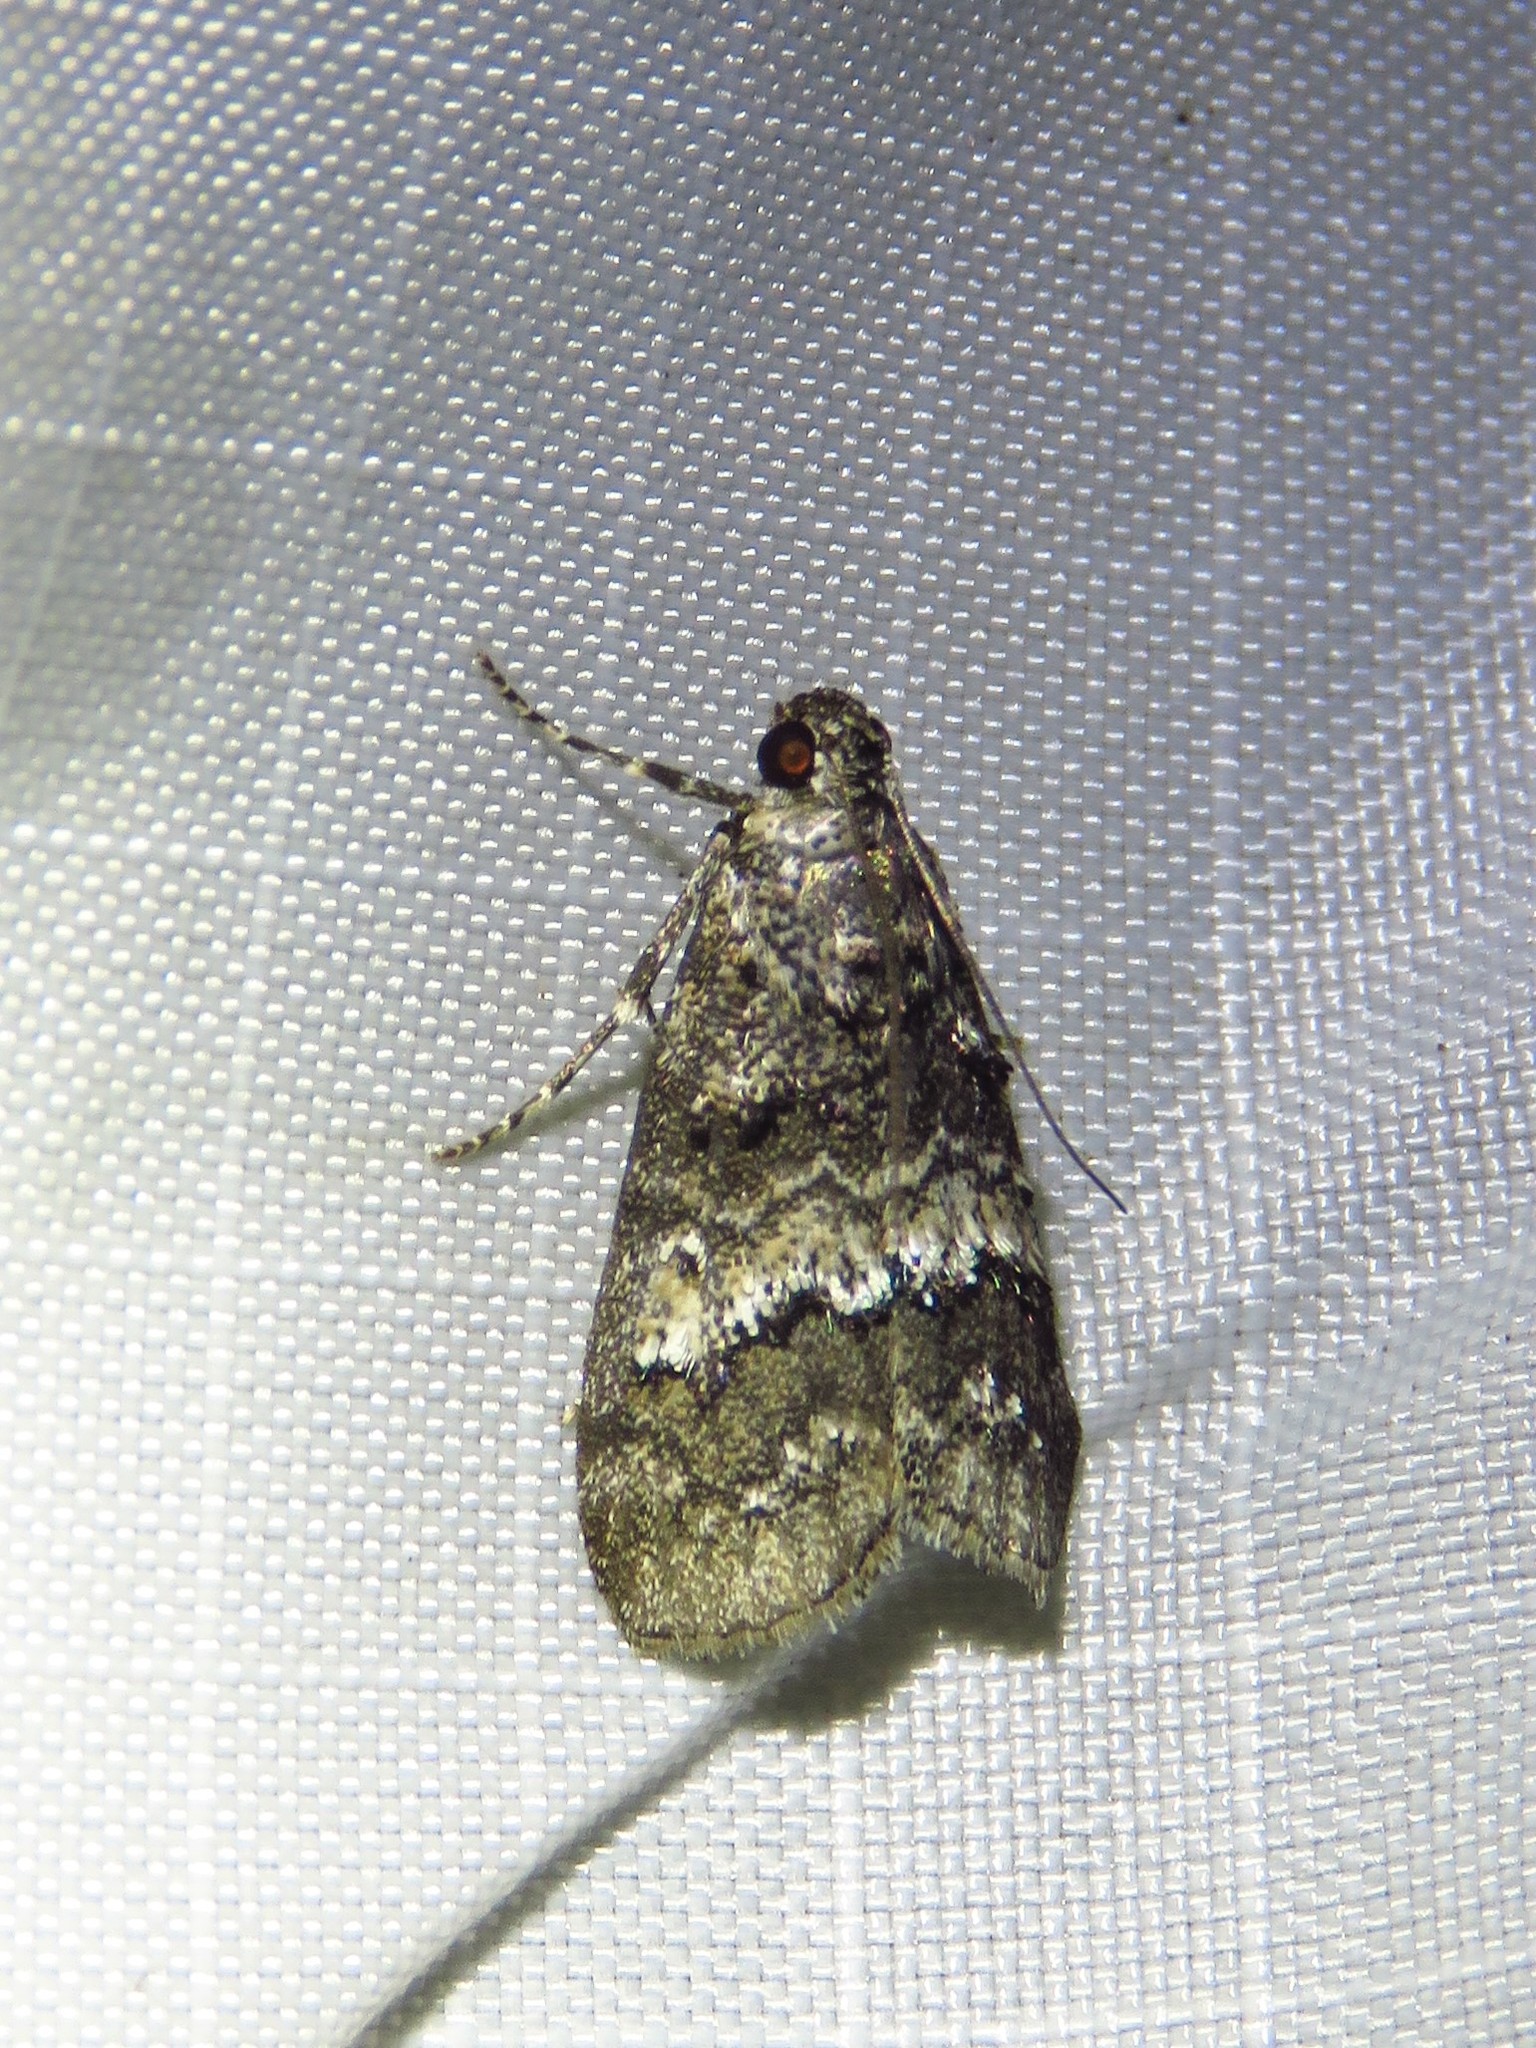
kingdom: Animalia
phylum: Arthropoda
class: Insecta
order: Lepidoptera
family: Pyralidae
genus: Pococera
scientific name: Pococera asperatella
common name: Maple webworm moth
